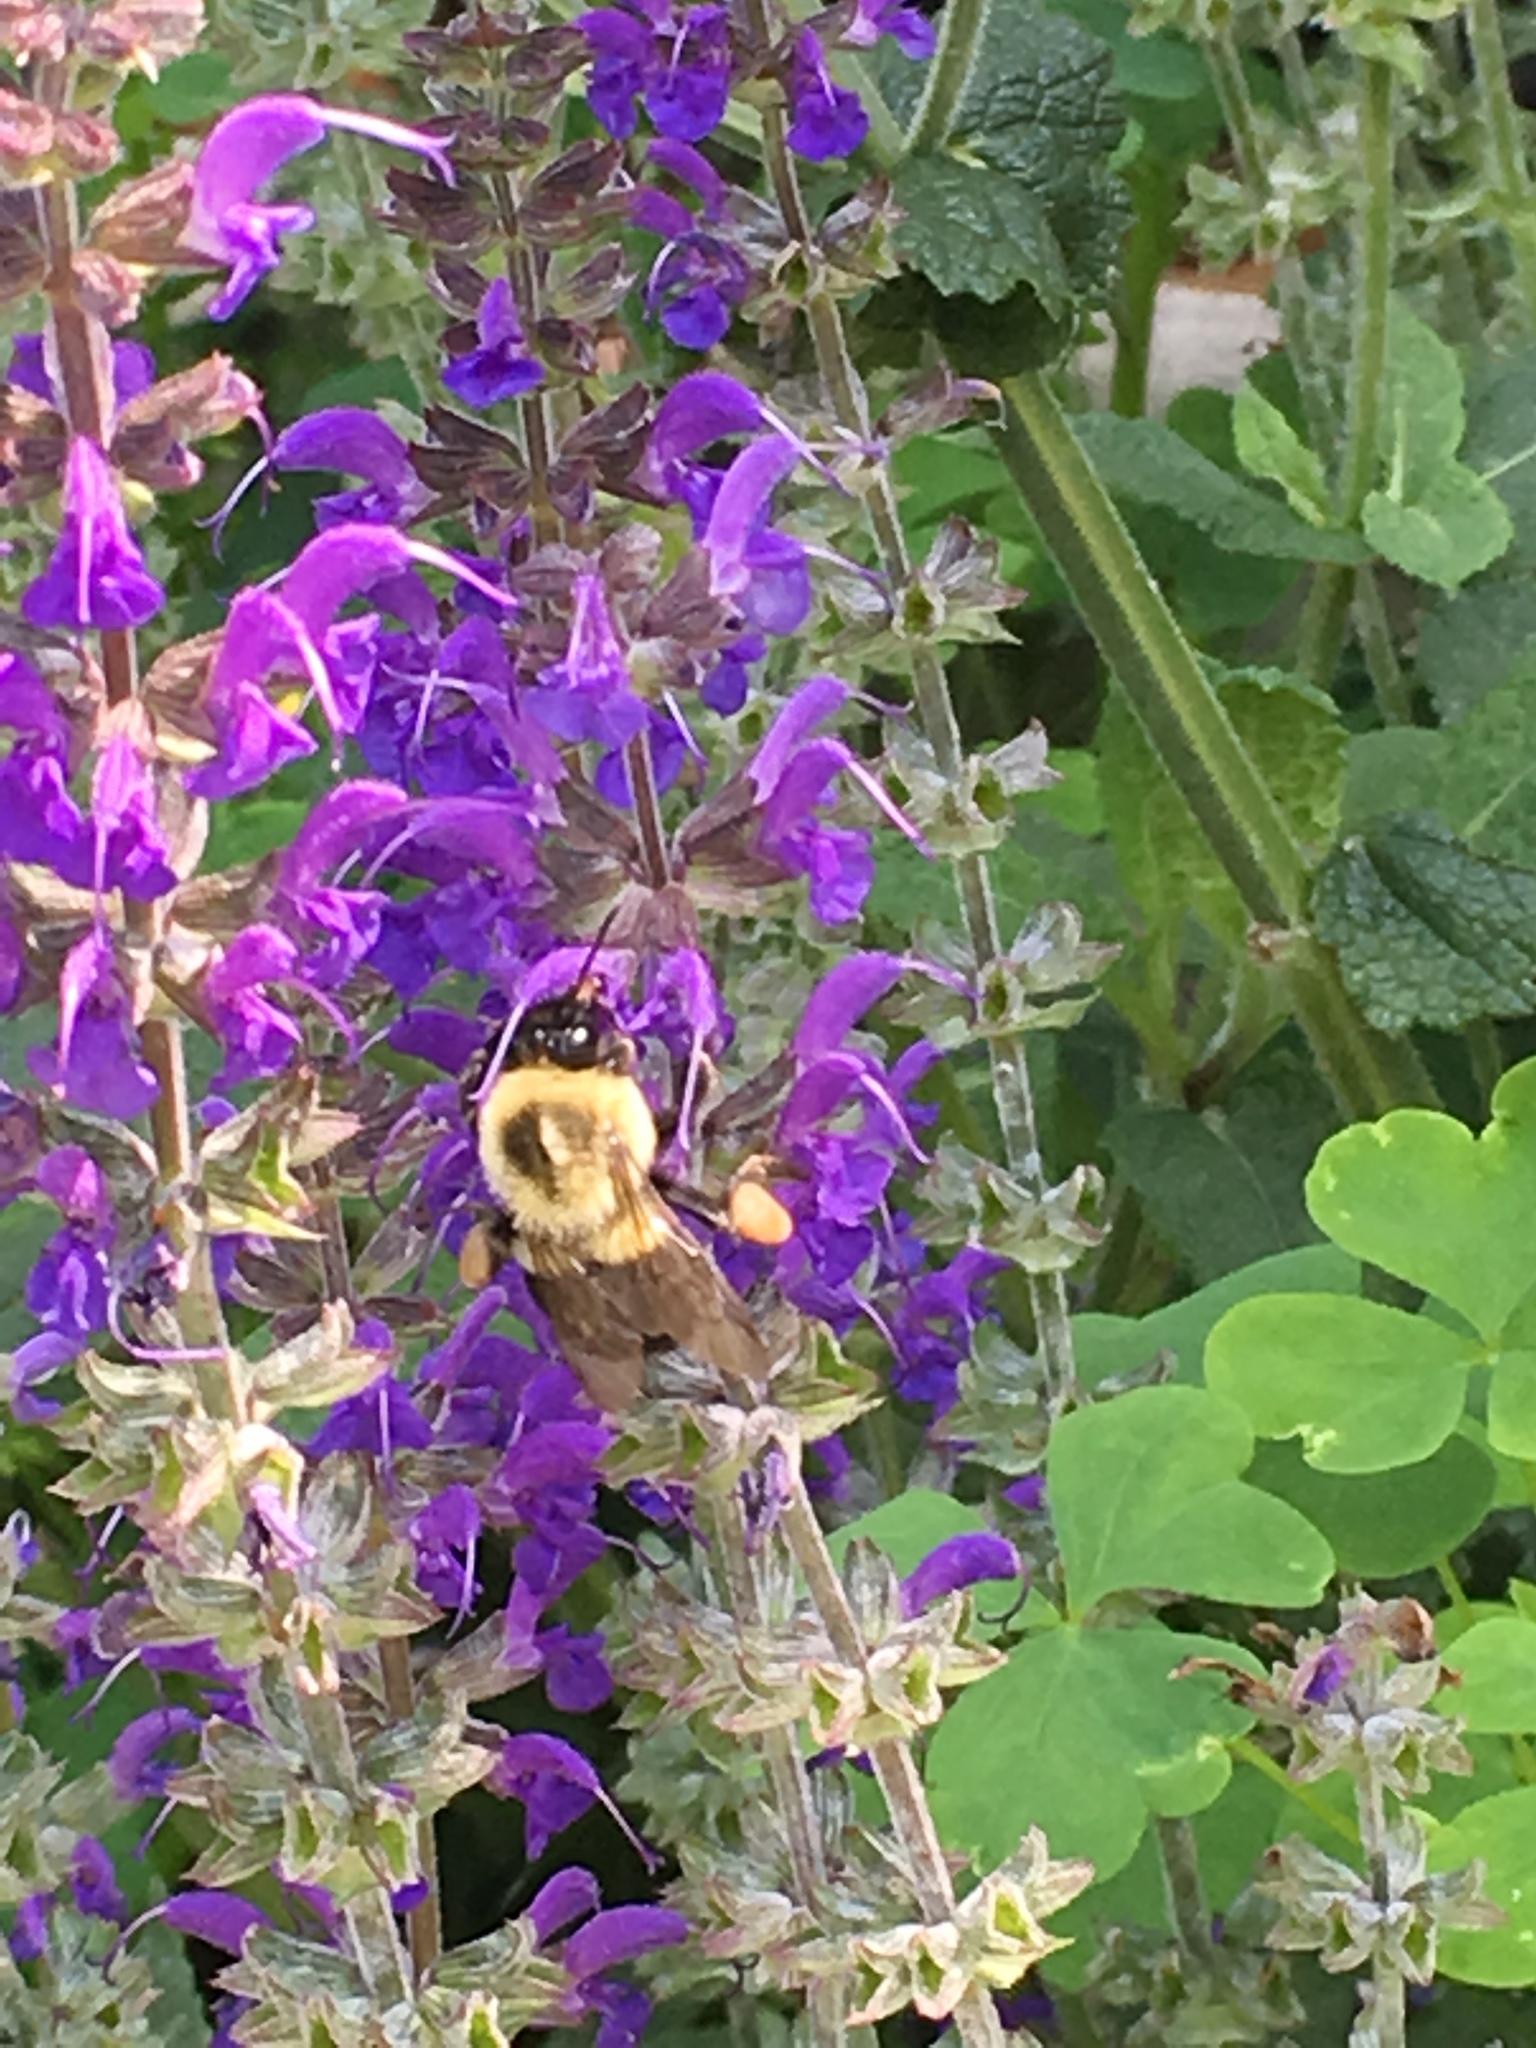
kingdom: Animalia
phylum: Arthropoda
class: Insecta
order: Hymenoptera
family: Apidae
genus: Bombus
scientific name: Bombus impatiens
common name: Common eastern bumble bee
